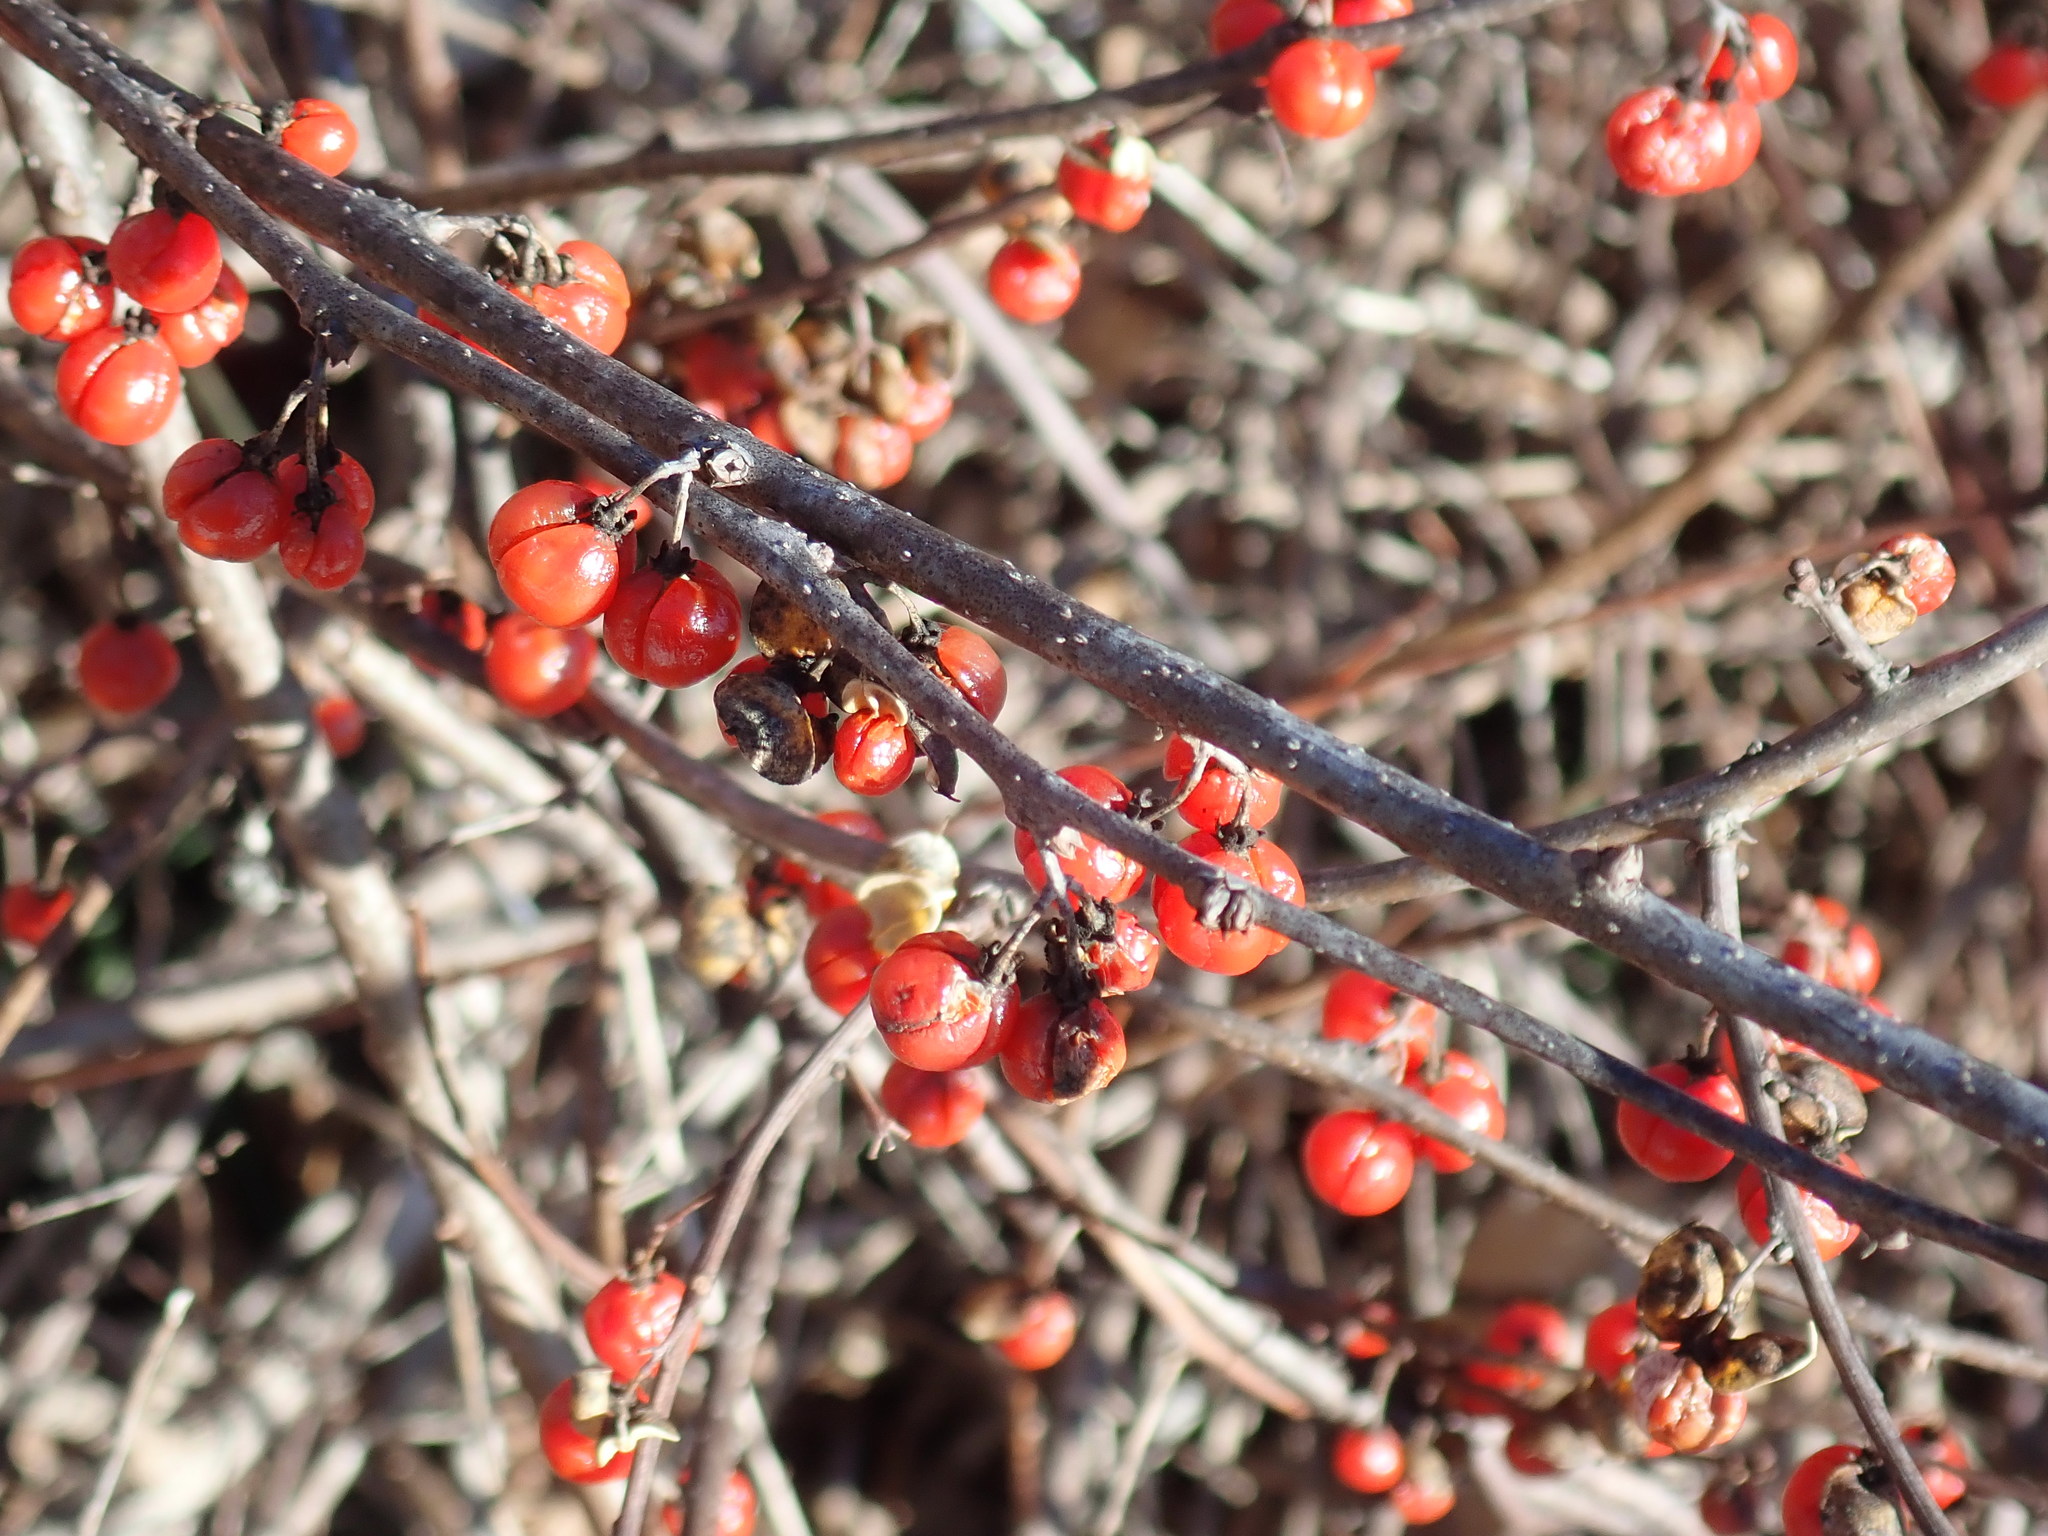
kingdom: Plantae
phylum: Tracheophyta
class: Magnoliopsida
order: Celastrales
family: Celastraceae
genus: Celastrus
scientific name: Celastrus orbiculatus
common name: Oriental bittersweet
